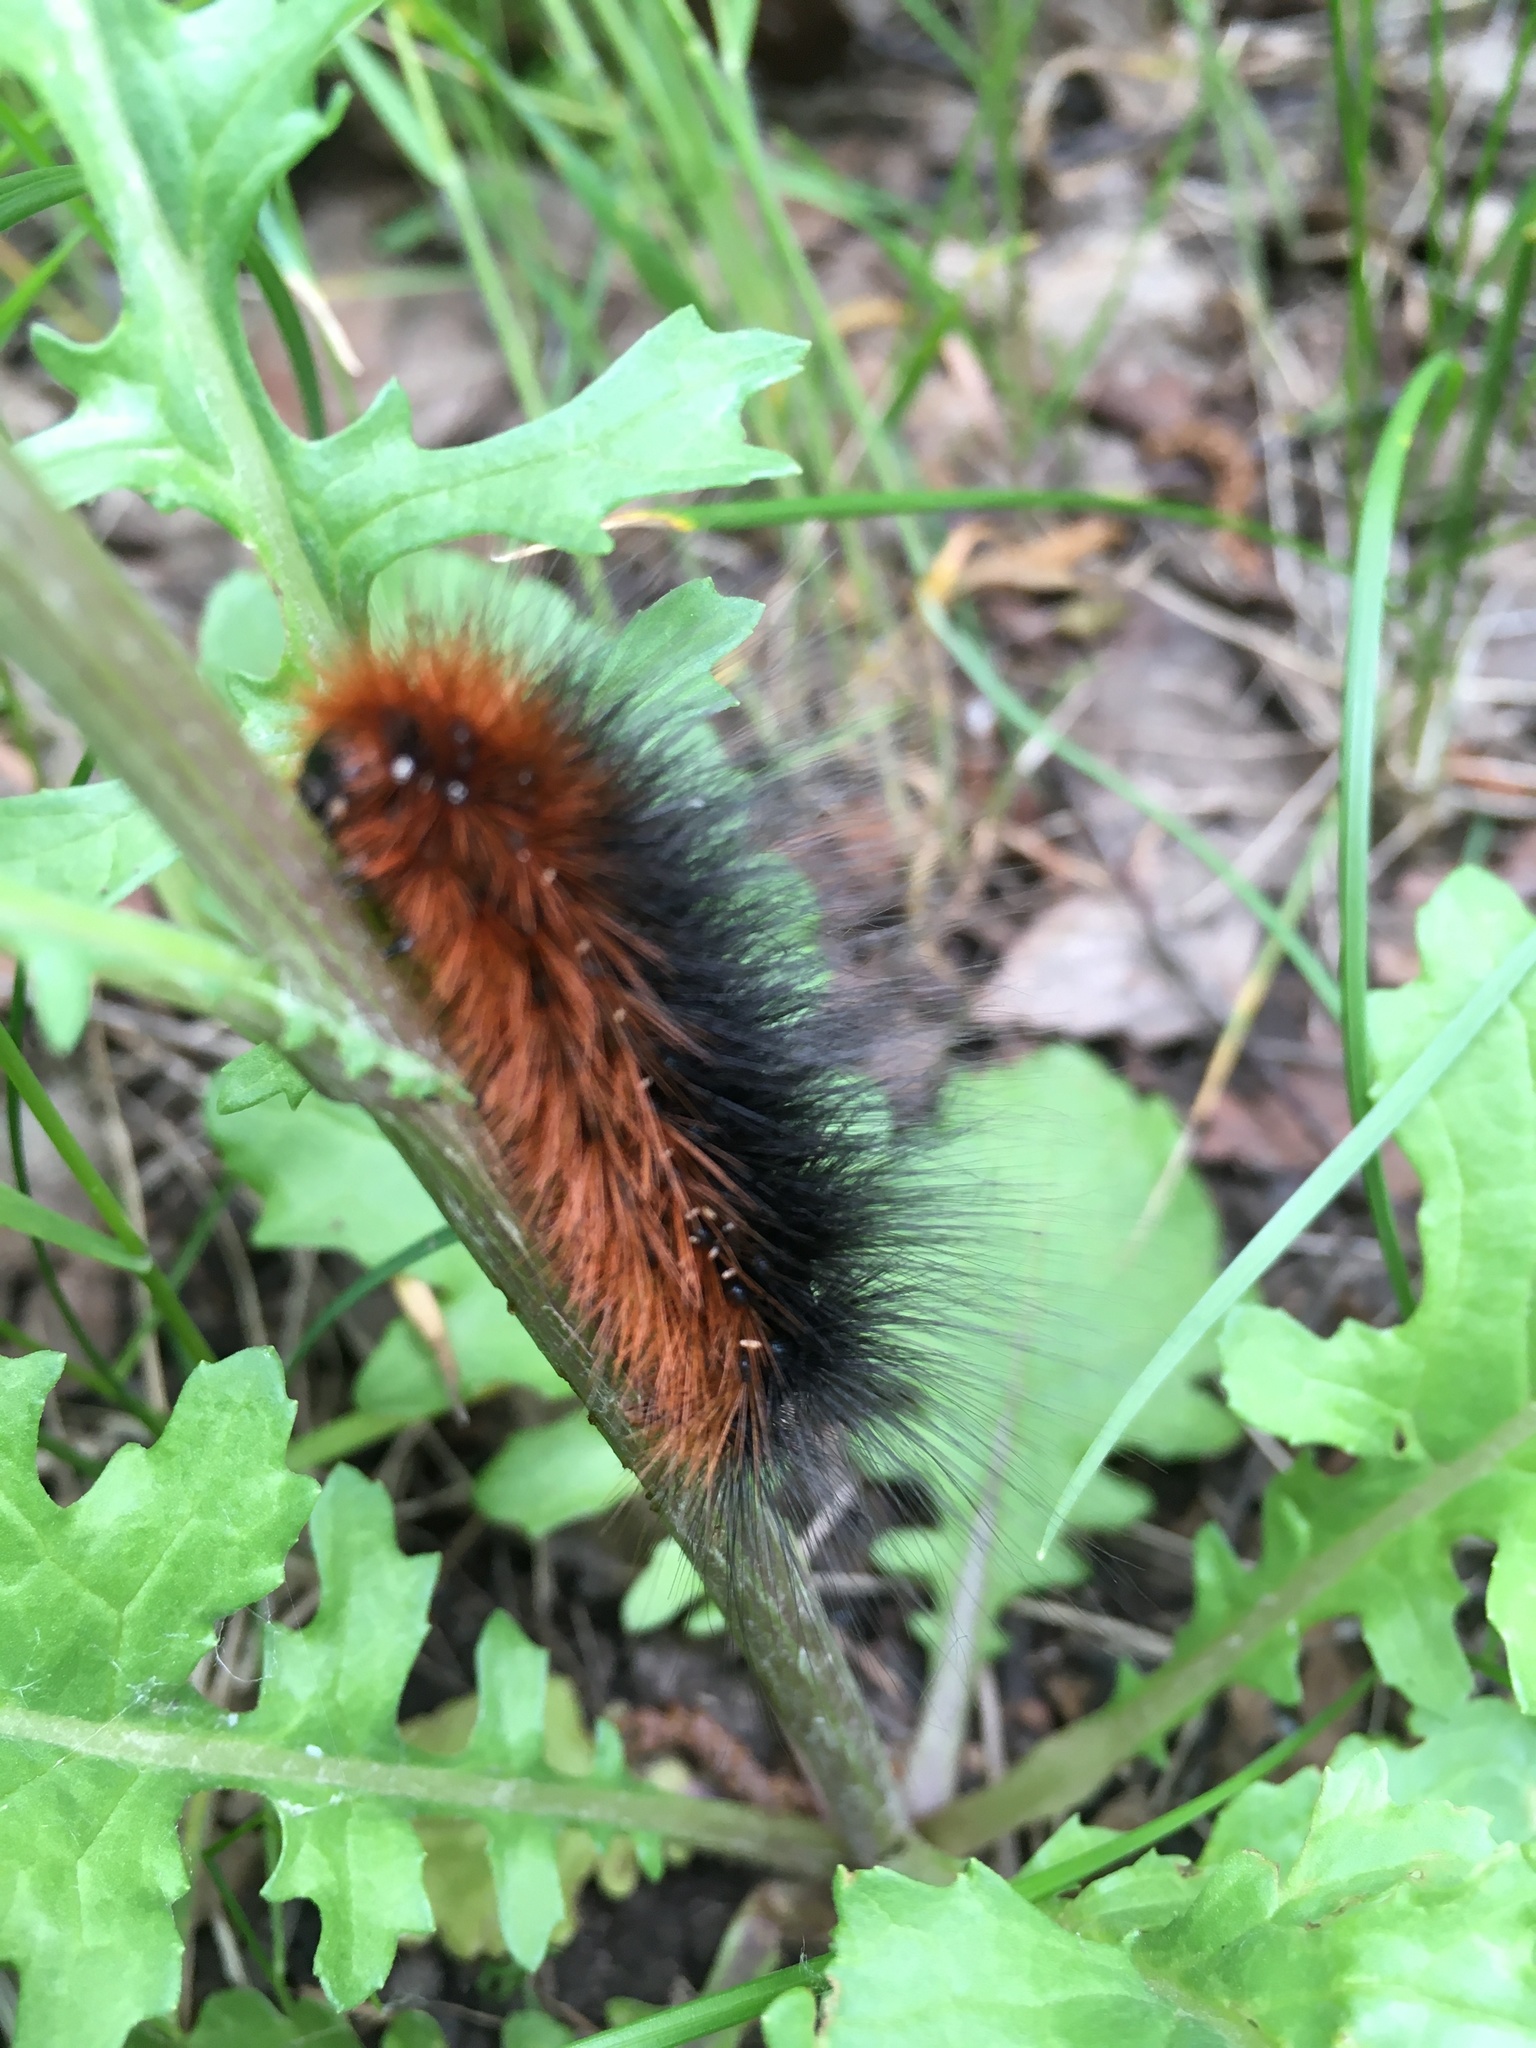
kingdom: Animalia
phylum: Arthropoda
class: Insecta
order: Lepidoptera
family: Erebidae
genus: Arctia
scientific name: Arctia caja
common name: Garden tiger
